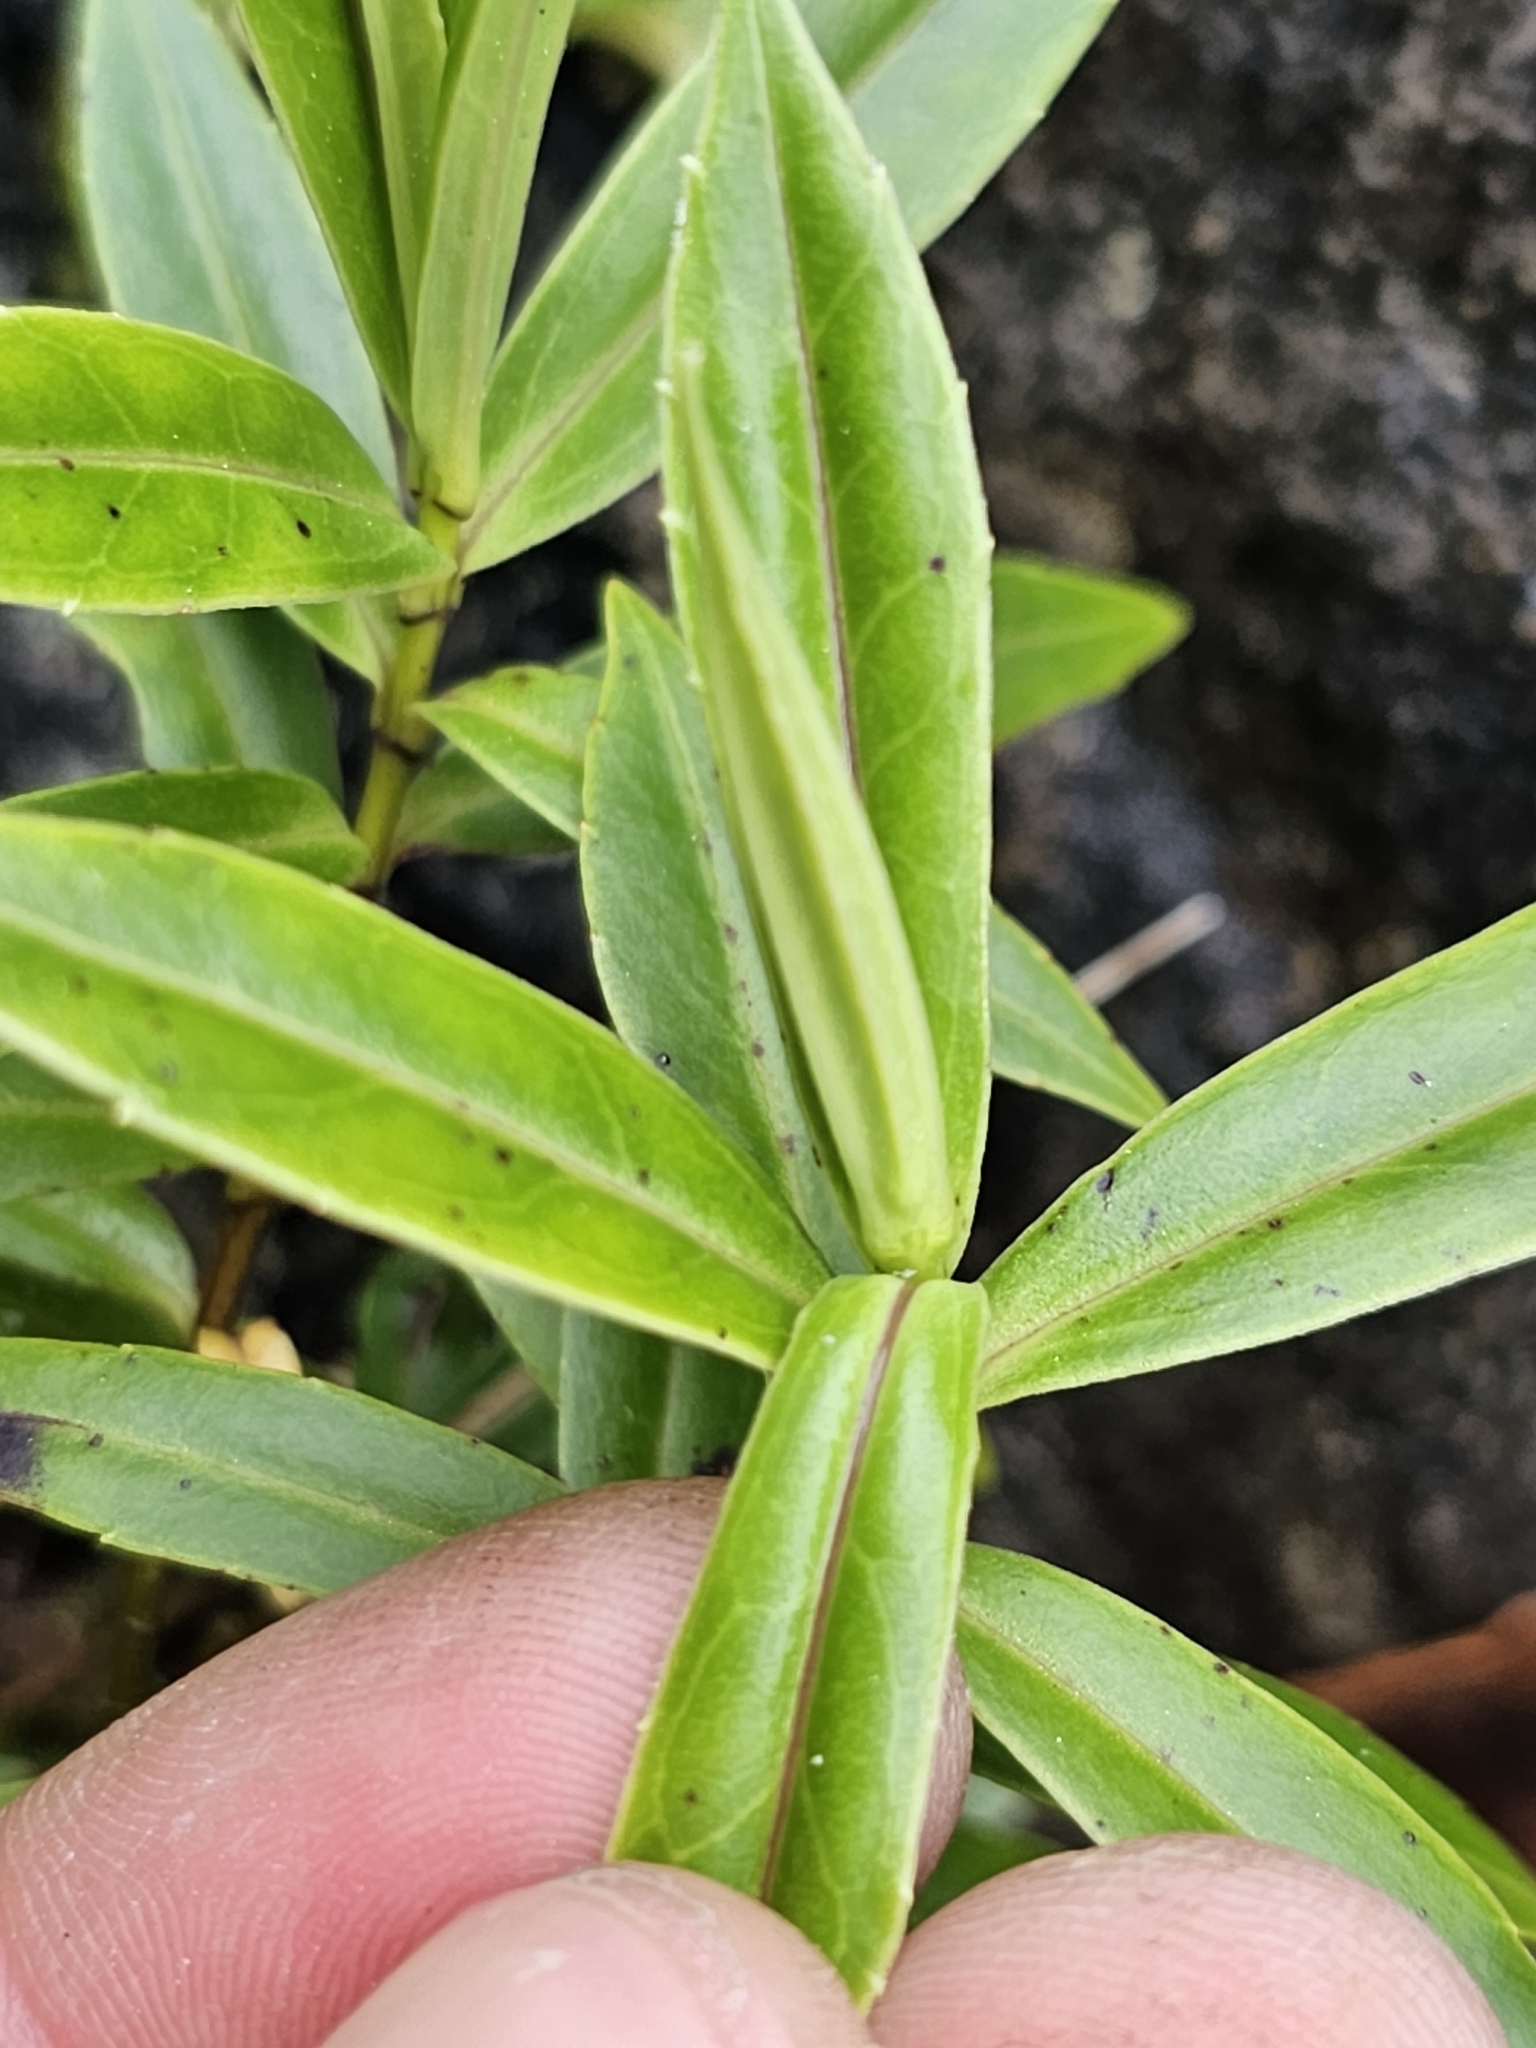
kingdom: Plantae
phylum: Tracheophyta
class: Magnoliopsida
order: Lamiales
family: Plantaginaceae
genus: Veronica
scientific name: Veronica salicifolia
